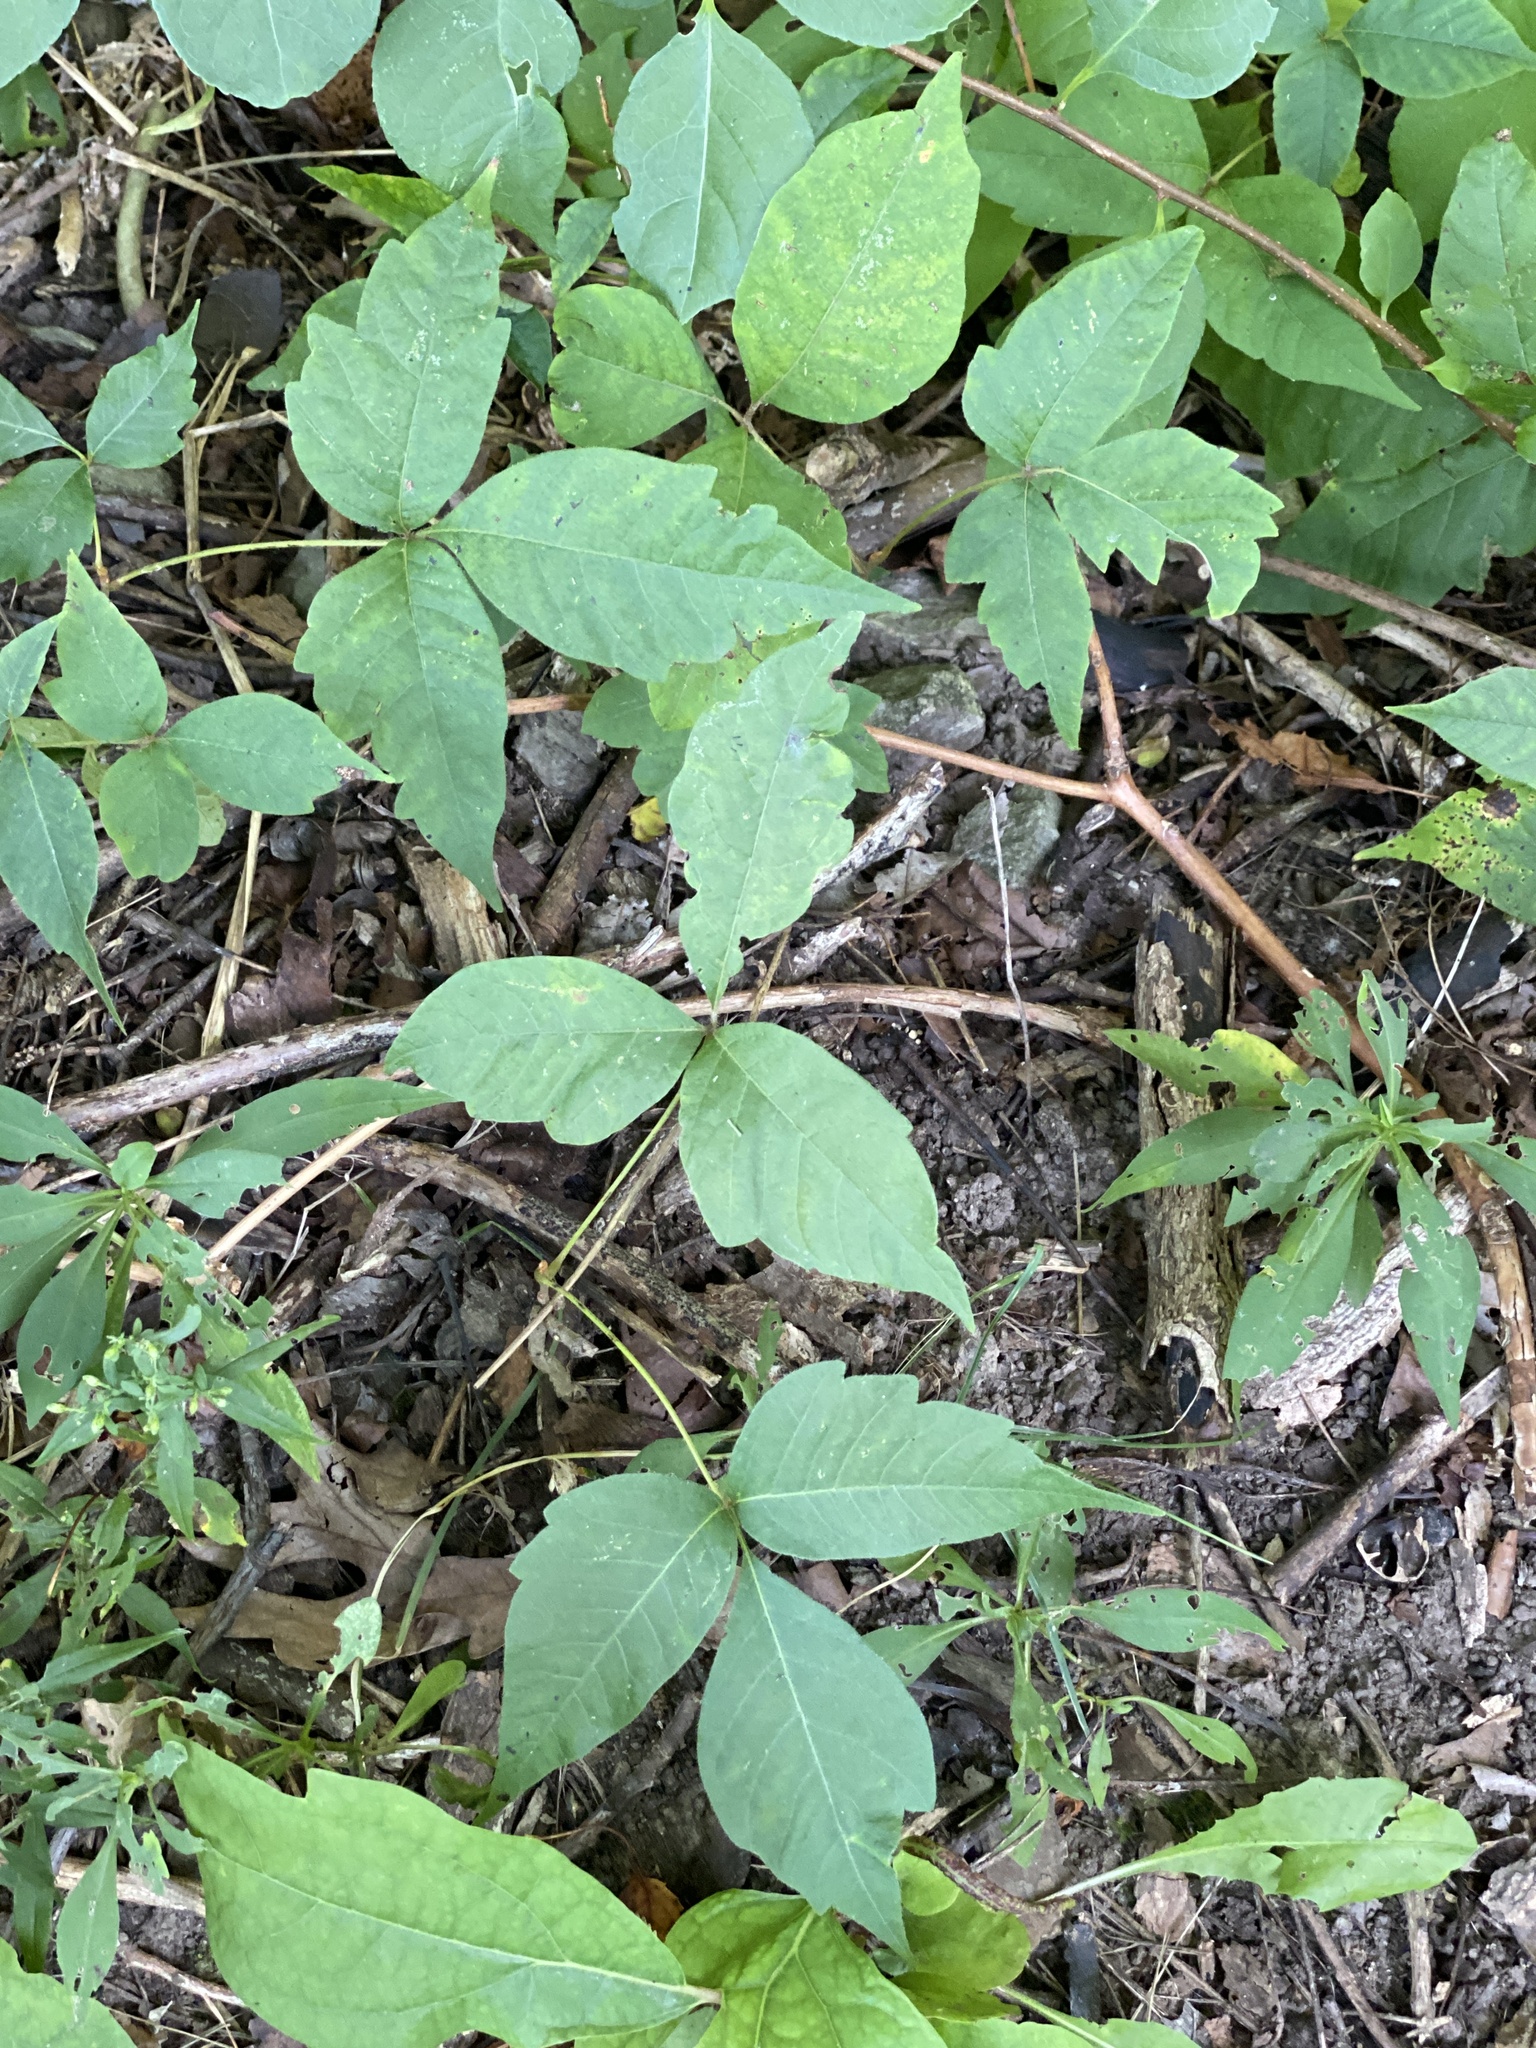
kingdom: Plantae
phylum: Tracheophyta
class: Magnoliopsida
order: Sapindales
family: Anacardiaceae
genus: Toxicodendron
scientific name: Toxicodendron radicans
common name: Poison ivy
